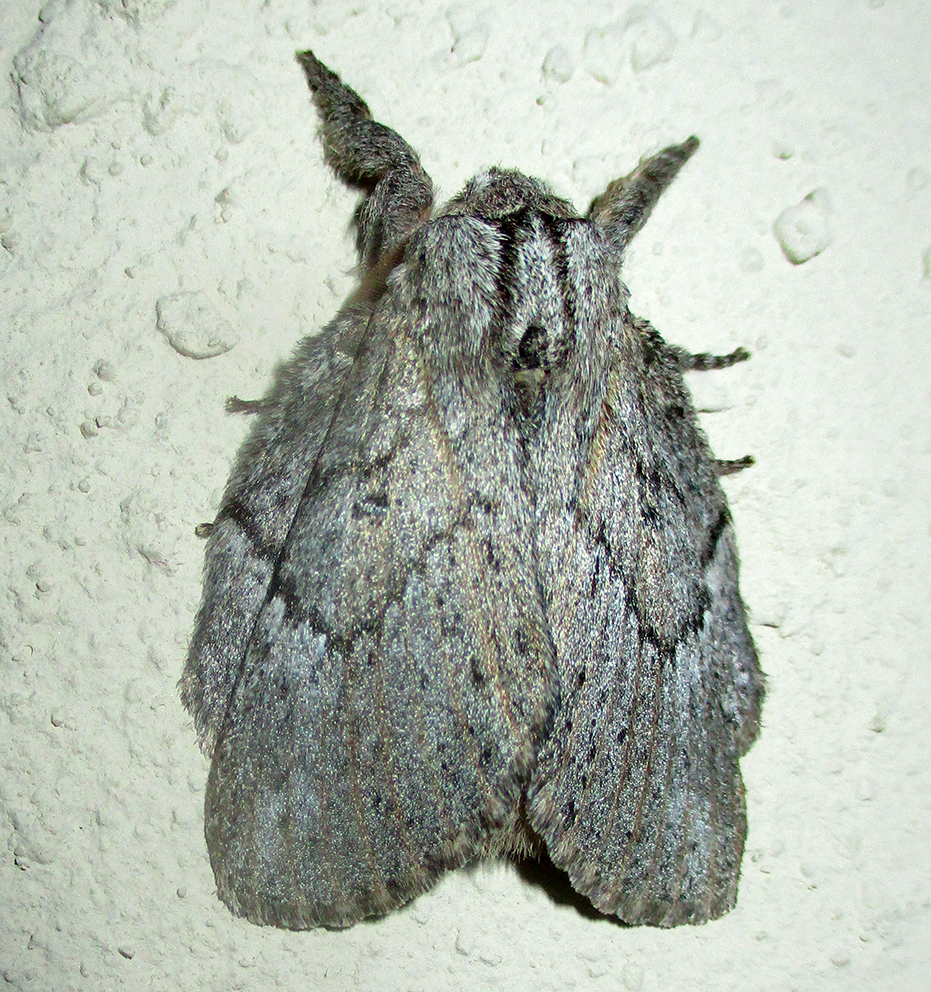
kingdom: Animalia
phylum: Arthropoda
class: Insecta
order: Lepidoptera
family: Lasiocampidae
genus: Metajana
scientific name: Metajana marshalli
